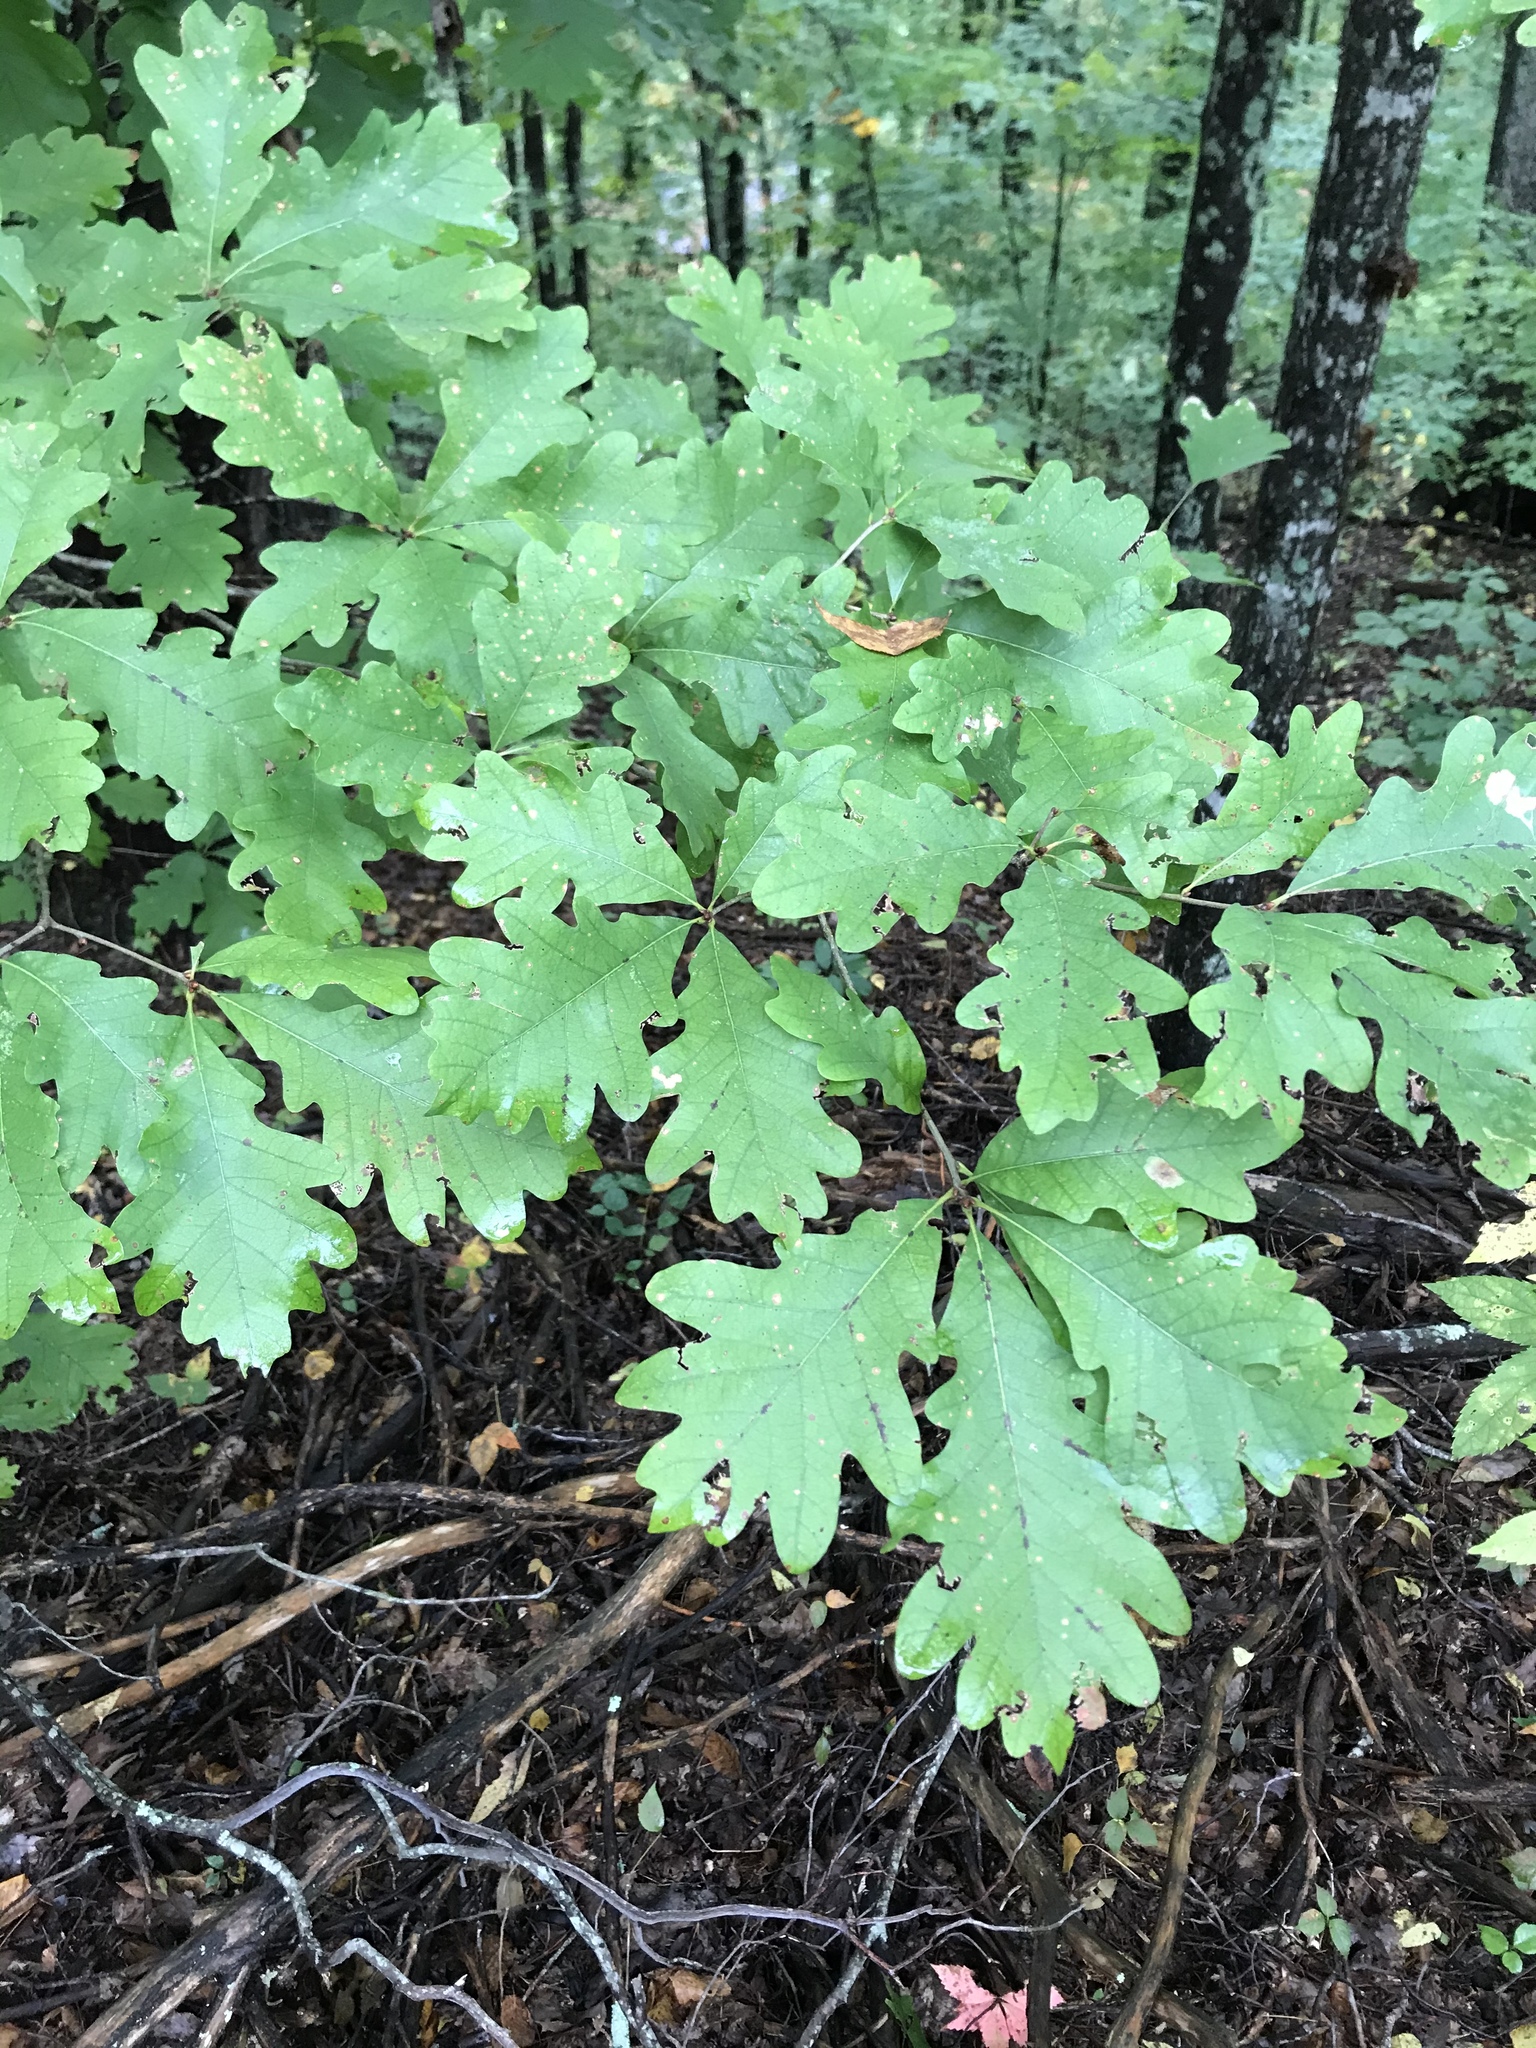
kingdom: Plantae
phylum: Tracheophyta
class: Magnoliopsida
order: Fagales
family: Fagaceae
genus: Quercus
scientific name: Quercus alba
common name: White oak
